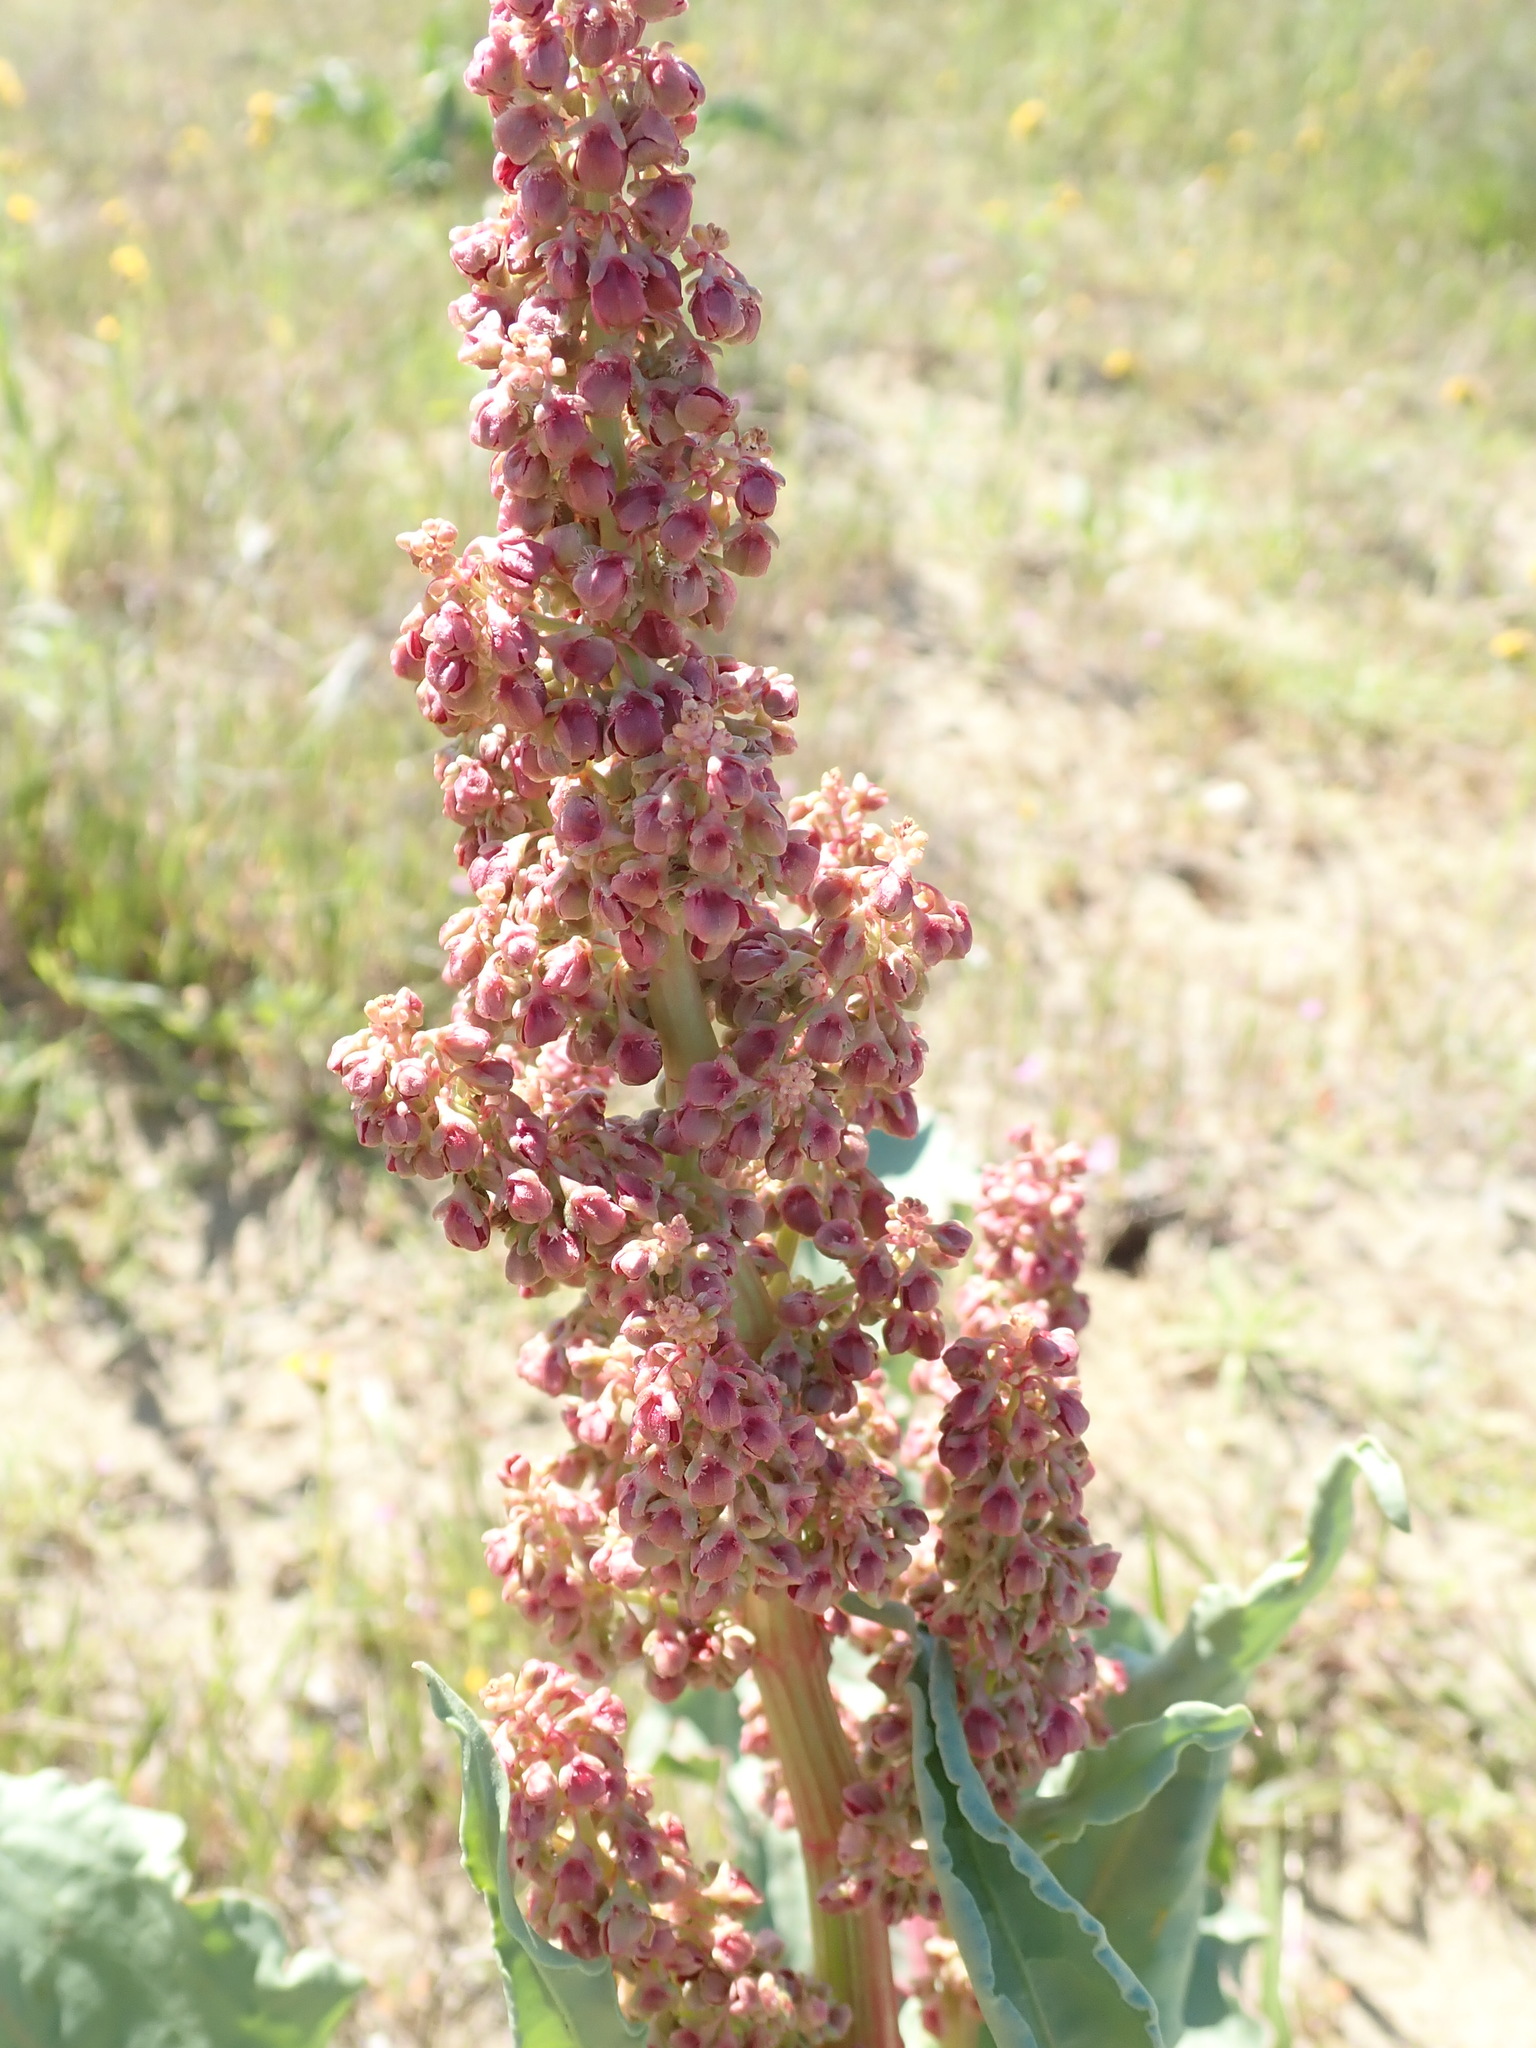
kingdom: Plantae
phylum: Tracheophyta
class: Magnoliopsida
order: Caryophyllales
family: Polygonaceae
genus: Rumex
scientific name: Rumex hymenosepalus
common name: Ganagra
